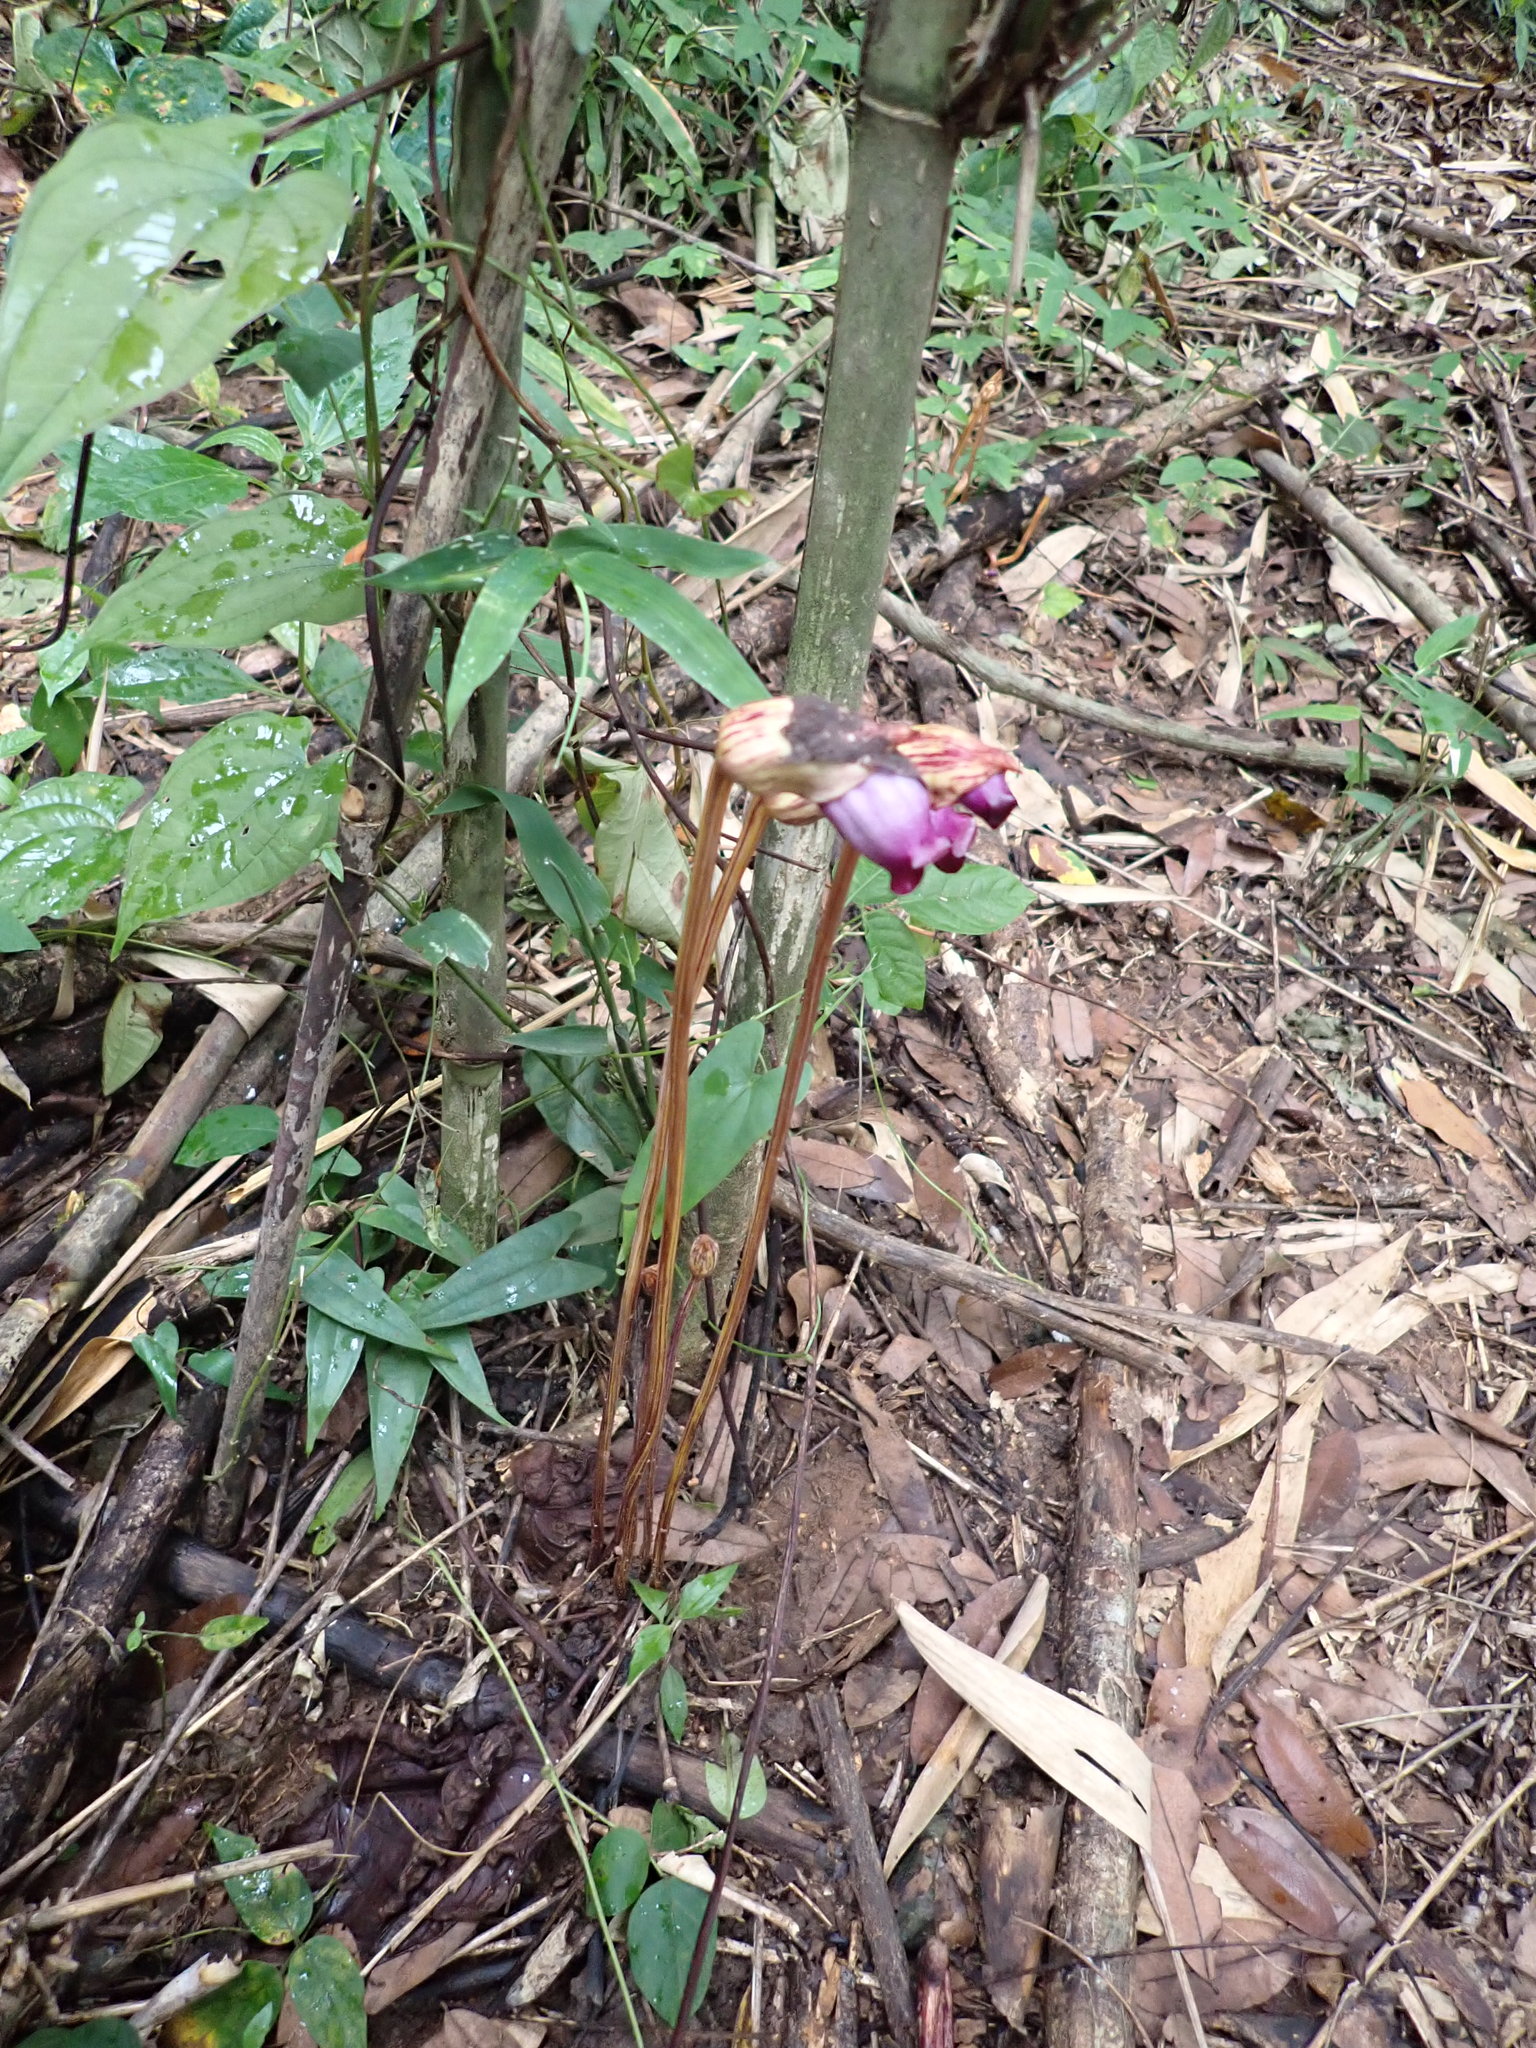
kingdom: Plantae
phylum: Tracheophyta
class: Magnoliopsida
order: Lamiales
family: Orobanchaceae
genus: Aeginetia
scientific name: Aeginetia indica
